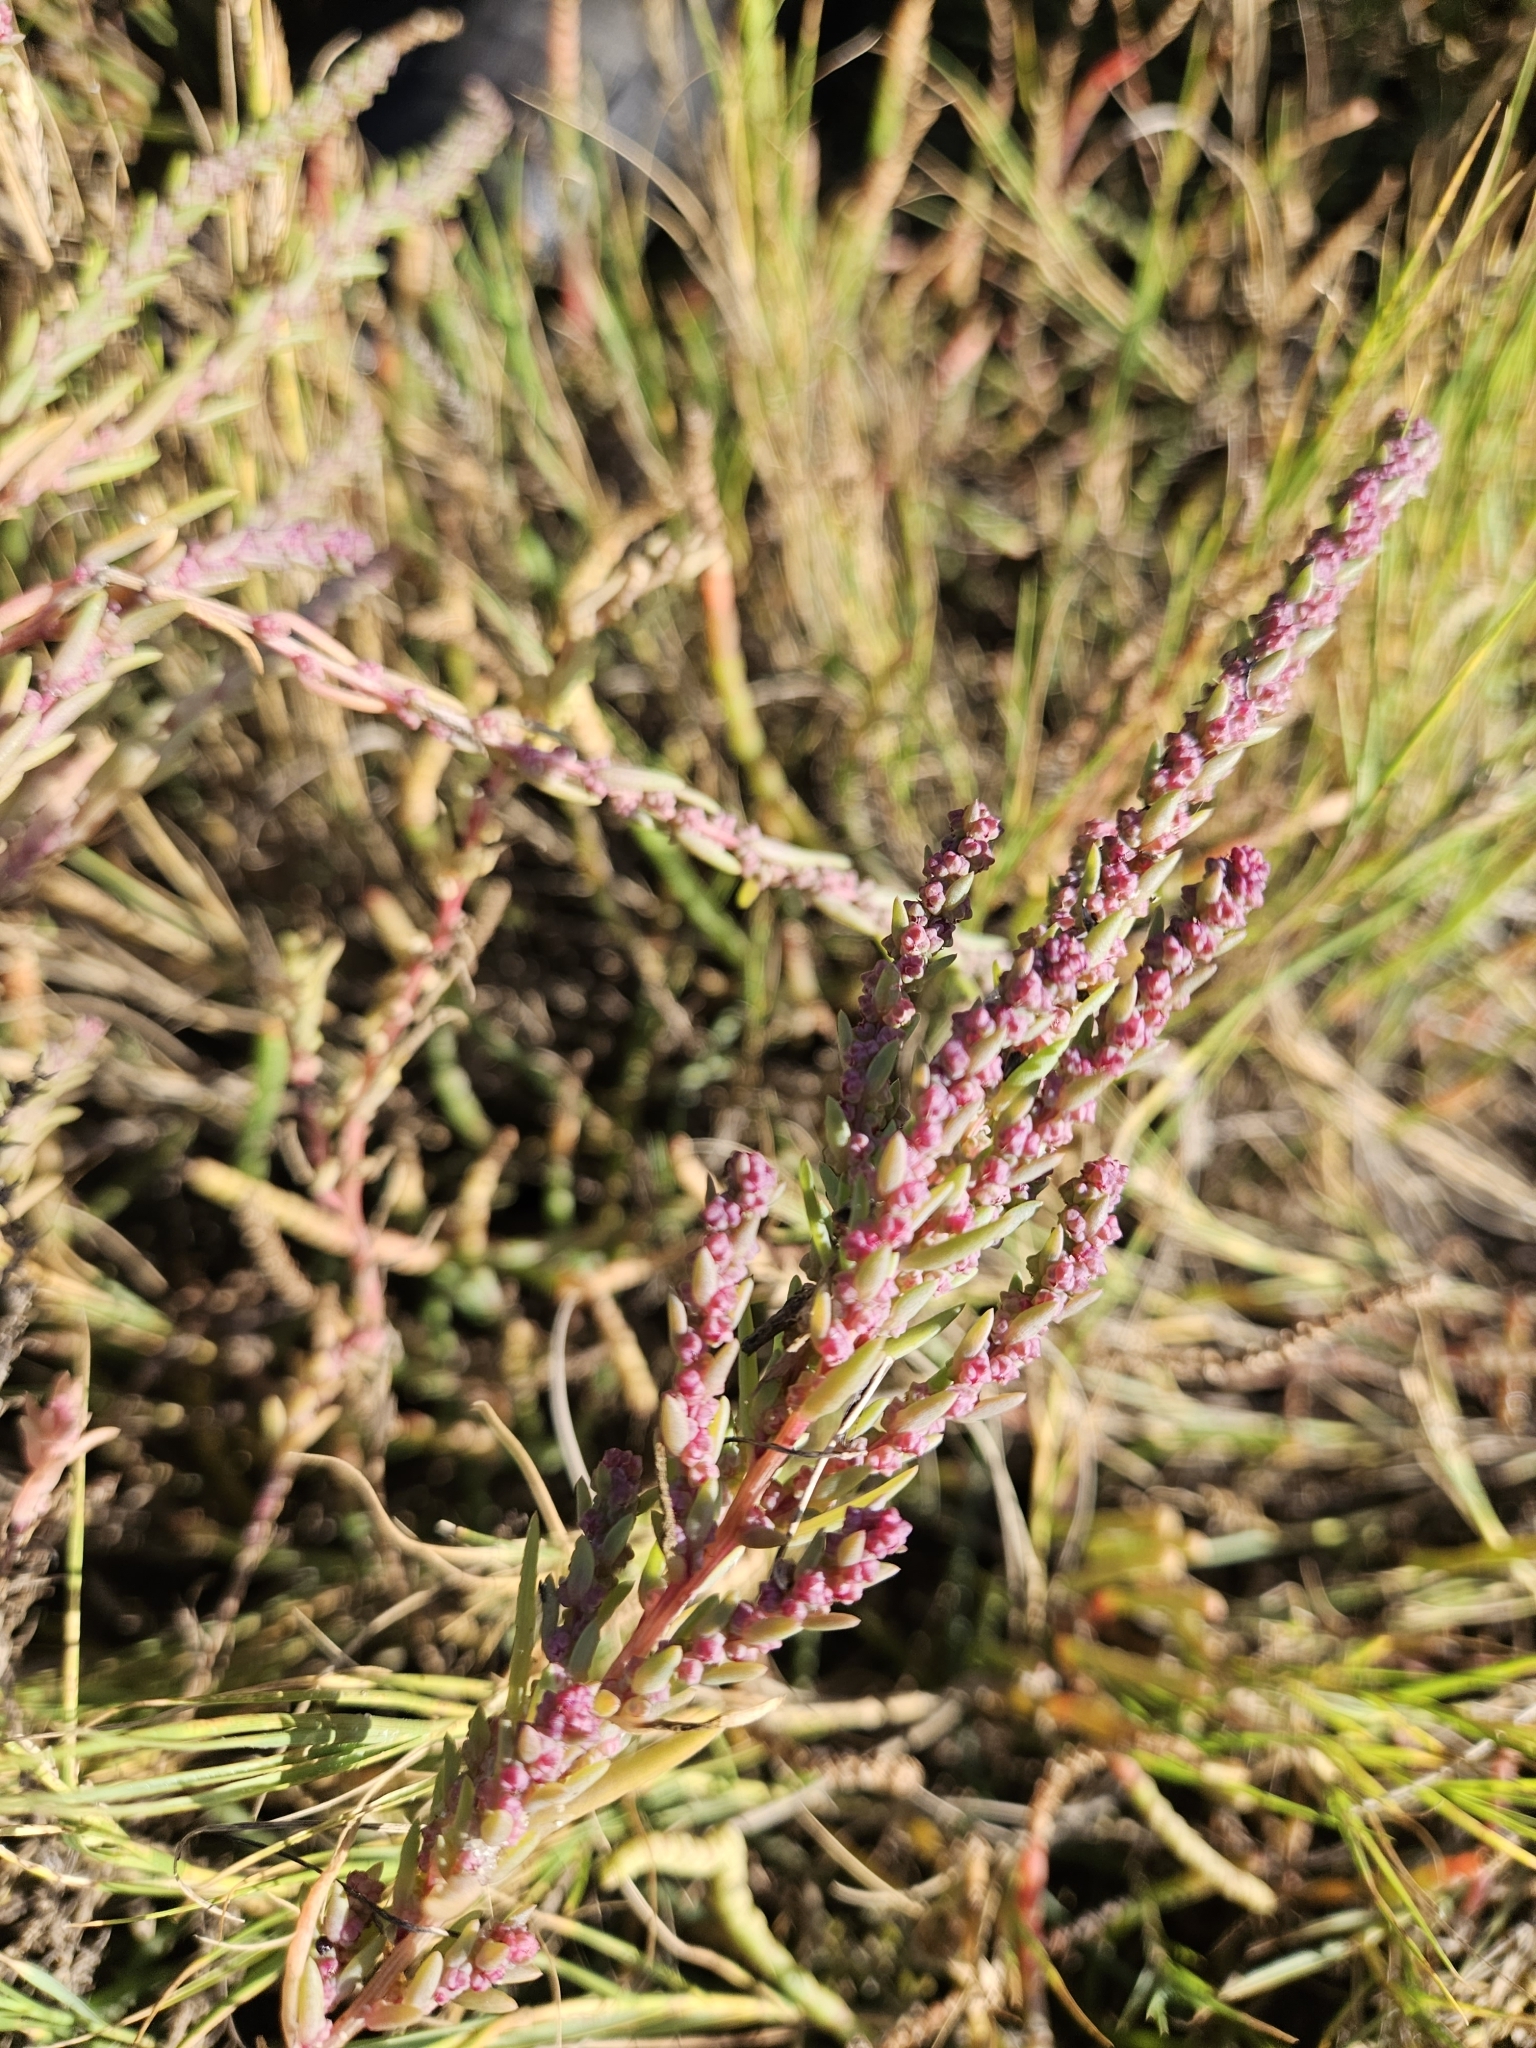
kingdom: Plantae
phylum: Tracheophyta
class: Magnoliopsida
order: Caryophyllales
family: Amaranthaceae
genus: Suaeda
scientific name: Suaeda linearis
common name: Annual seepweed
